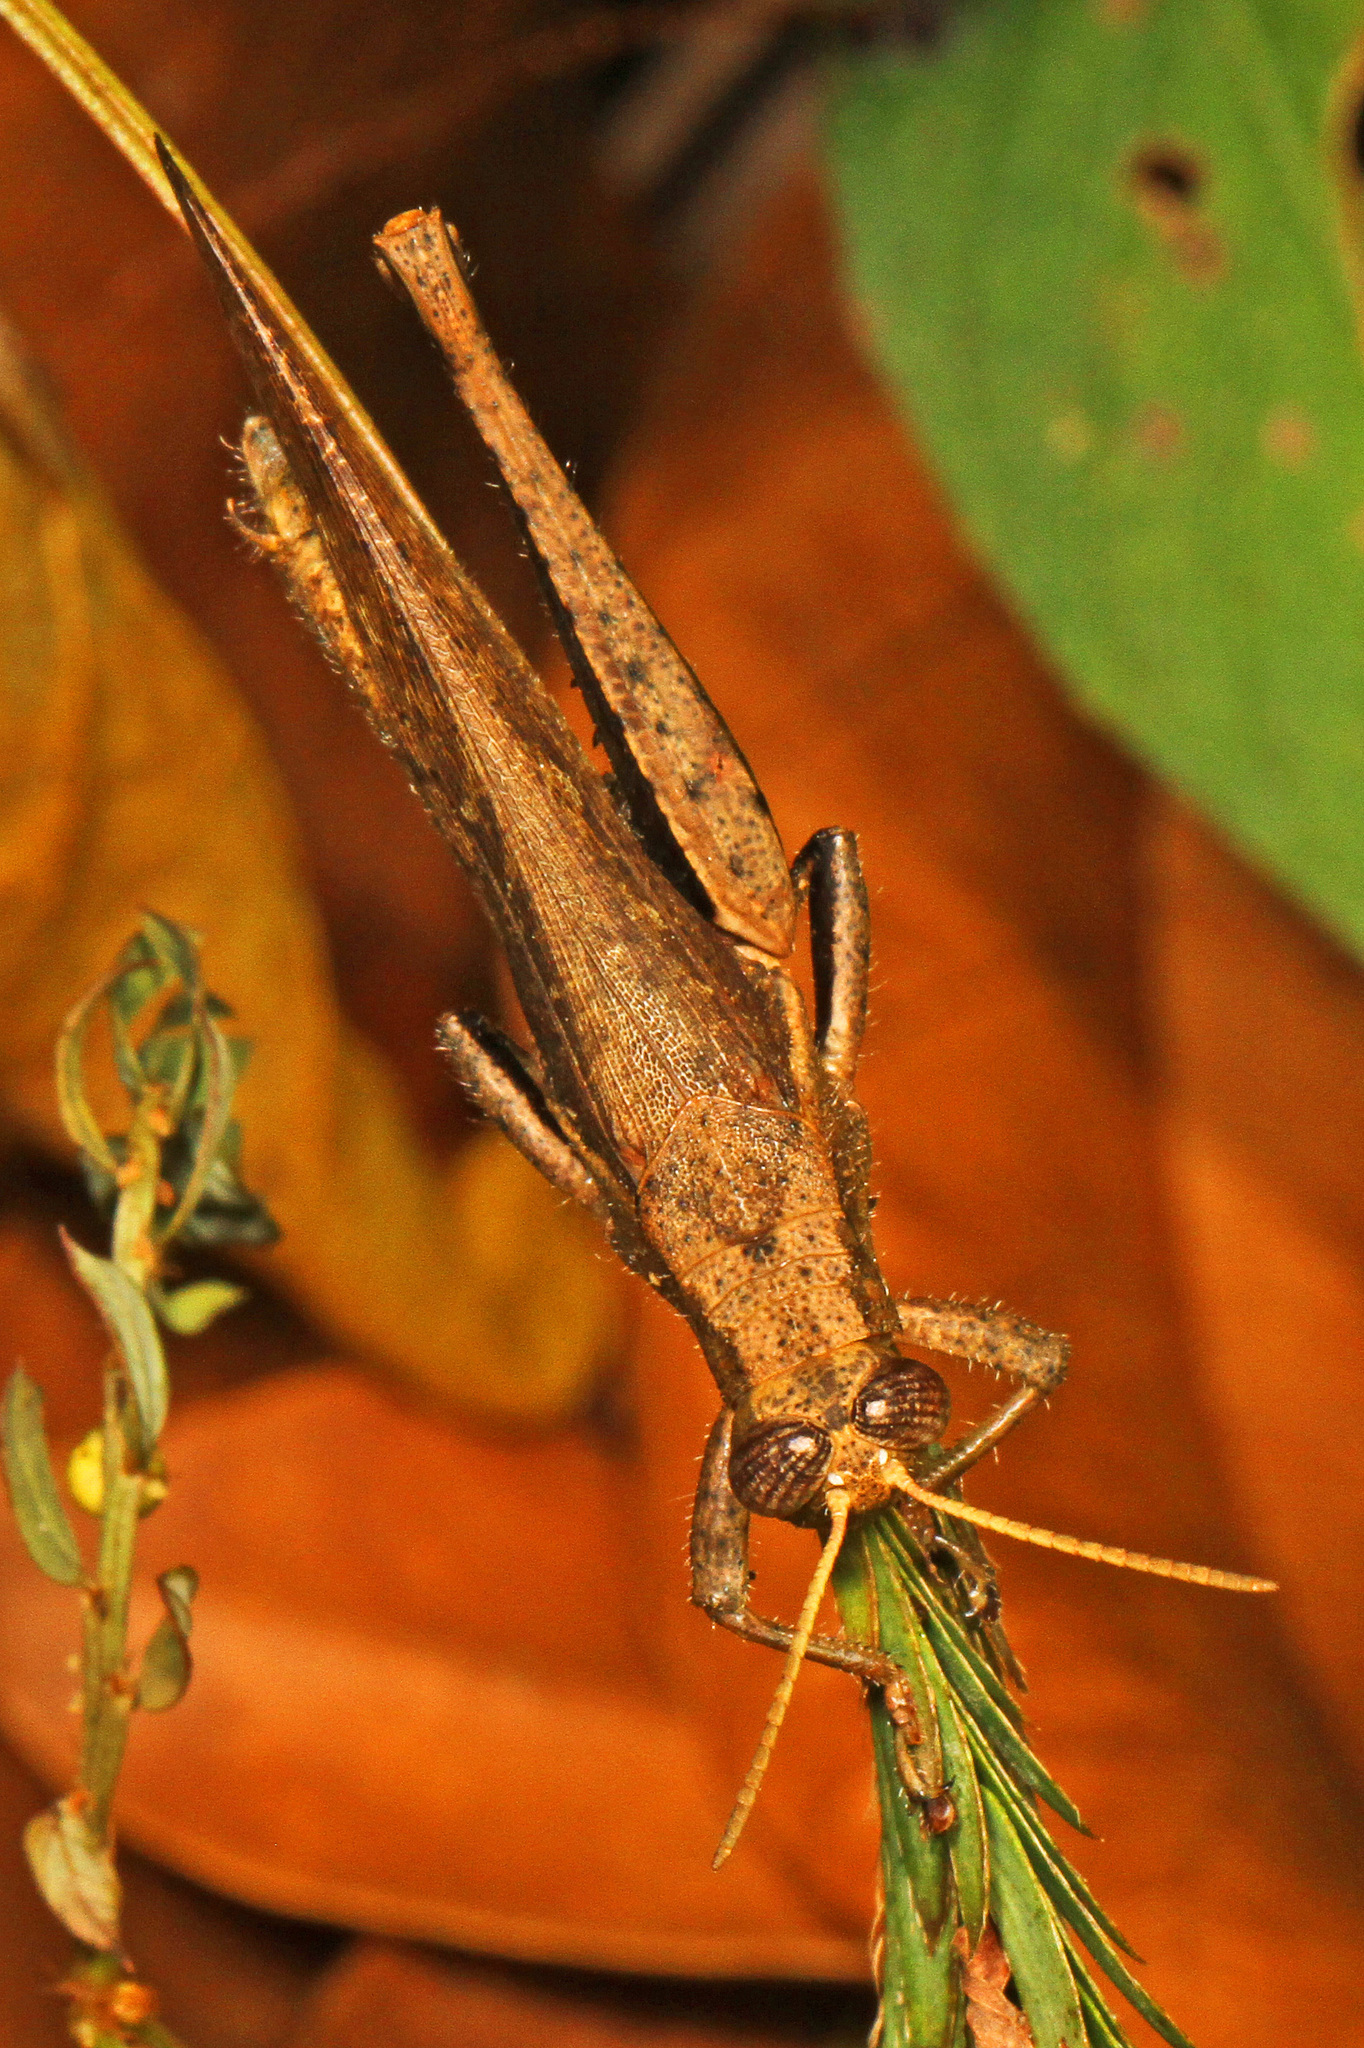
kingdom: Animalia
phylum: Arthropoda
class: Insecta
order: Orthoptera
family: Acrididae
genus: Abracris
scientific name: Abracris flavolineata
